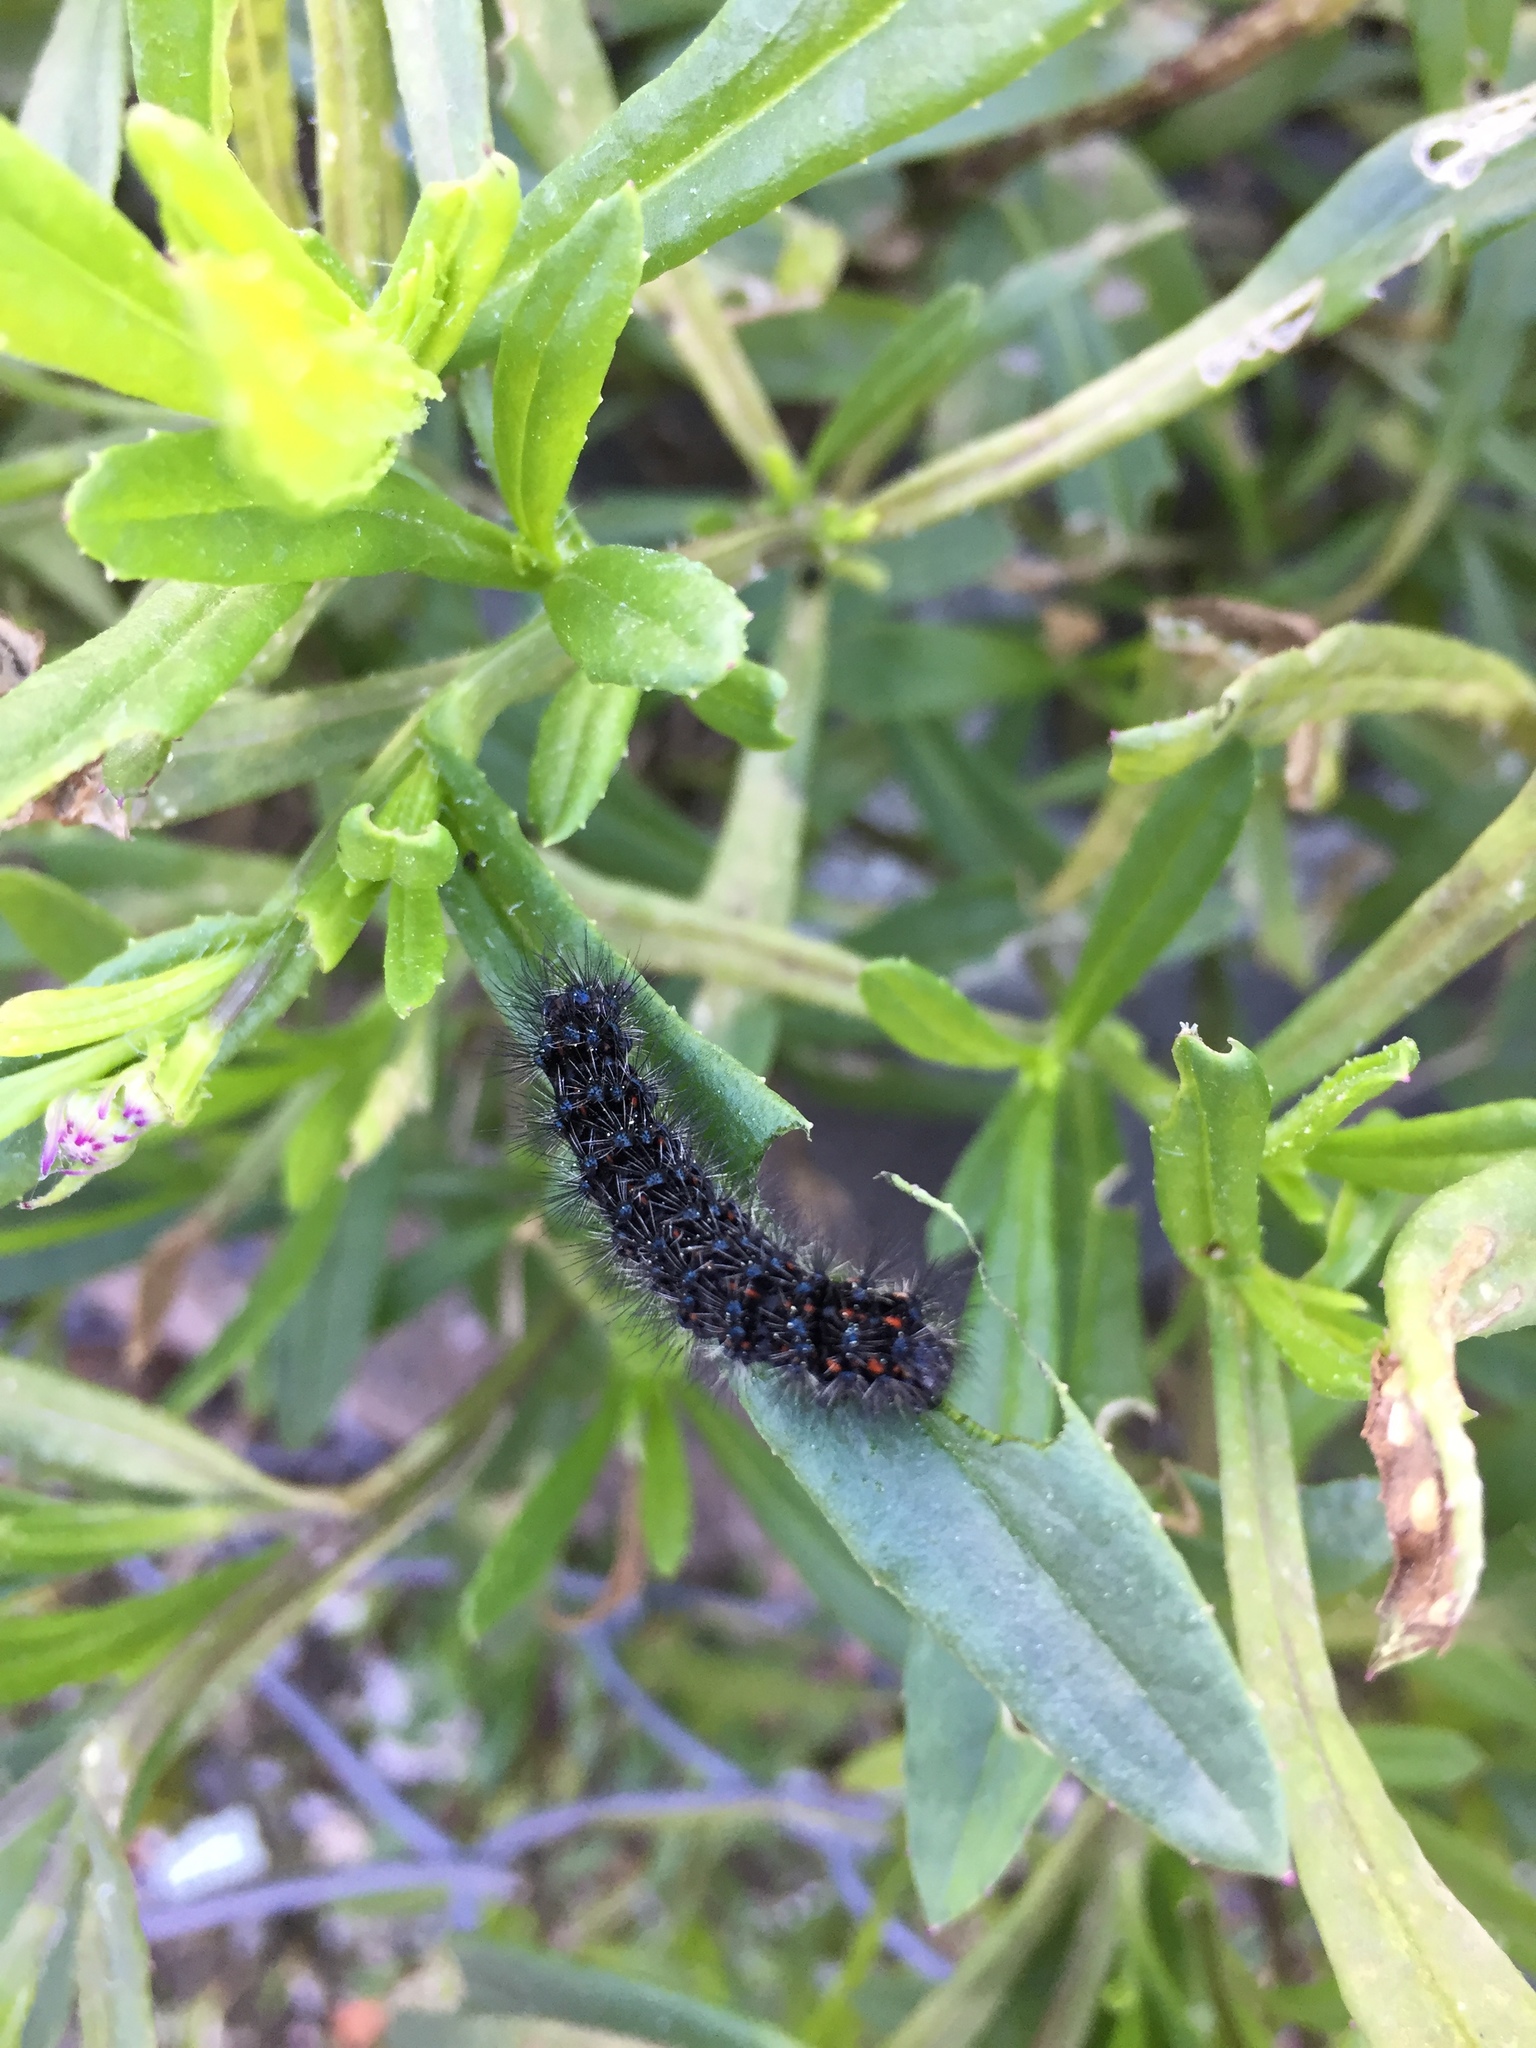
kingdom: Animalia
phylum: Arthropoda
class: Insecta
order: Lepidoptera
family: Erebidae
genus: Nyctemera
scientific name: Nyctemera annulatum
